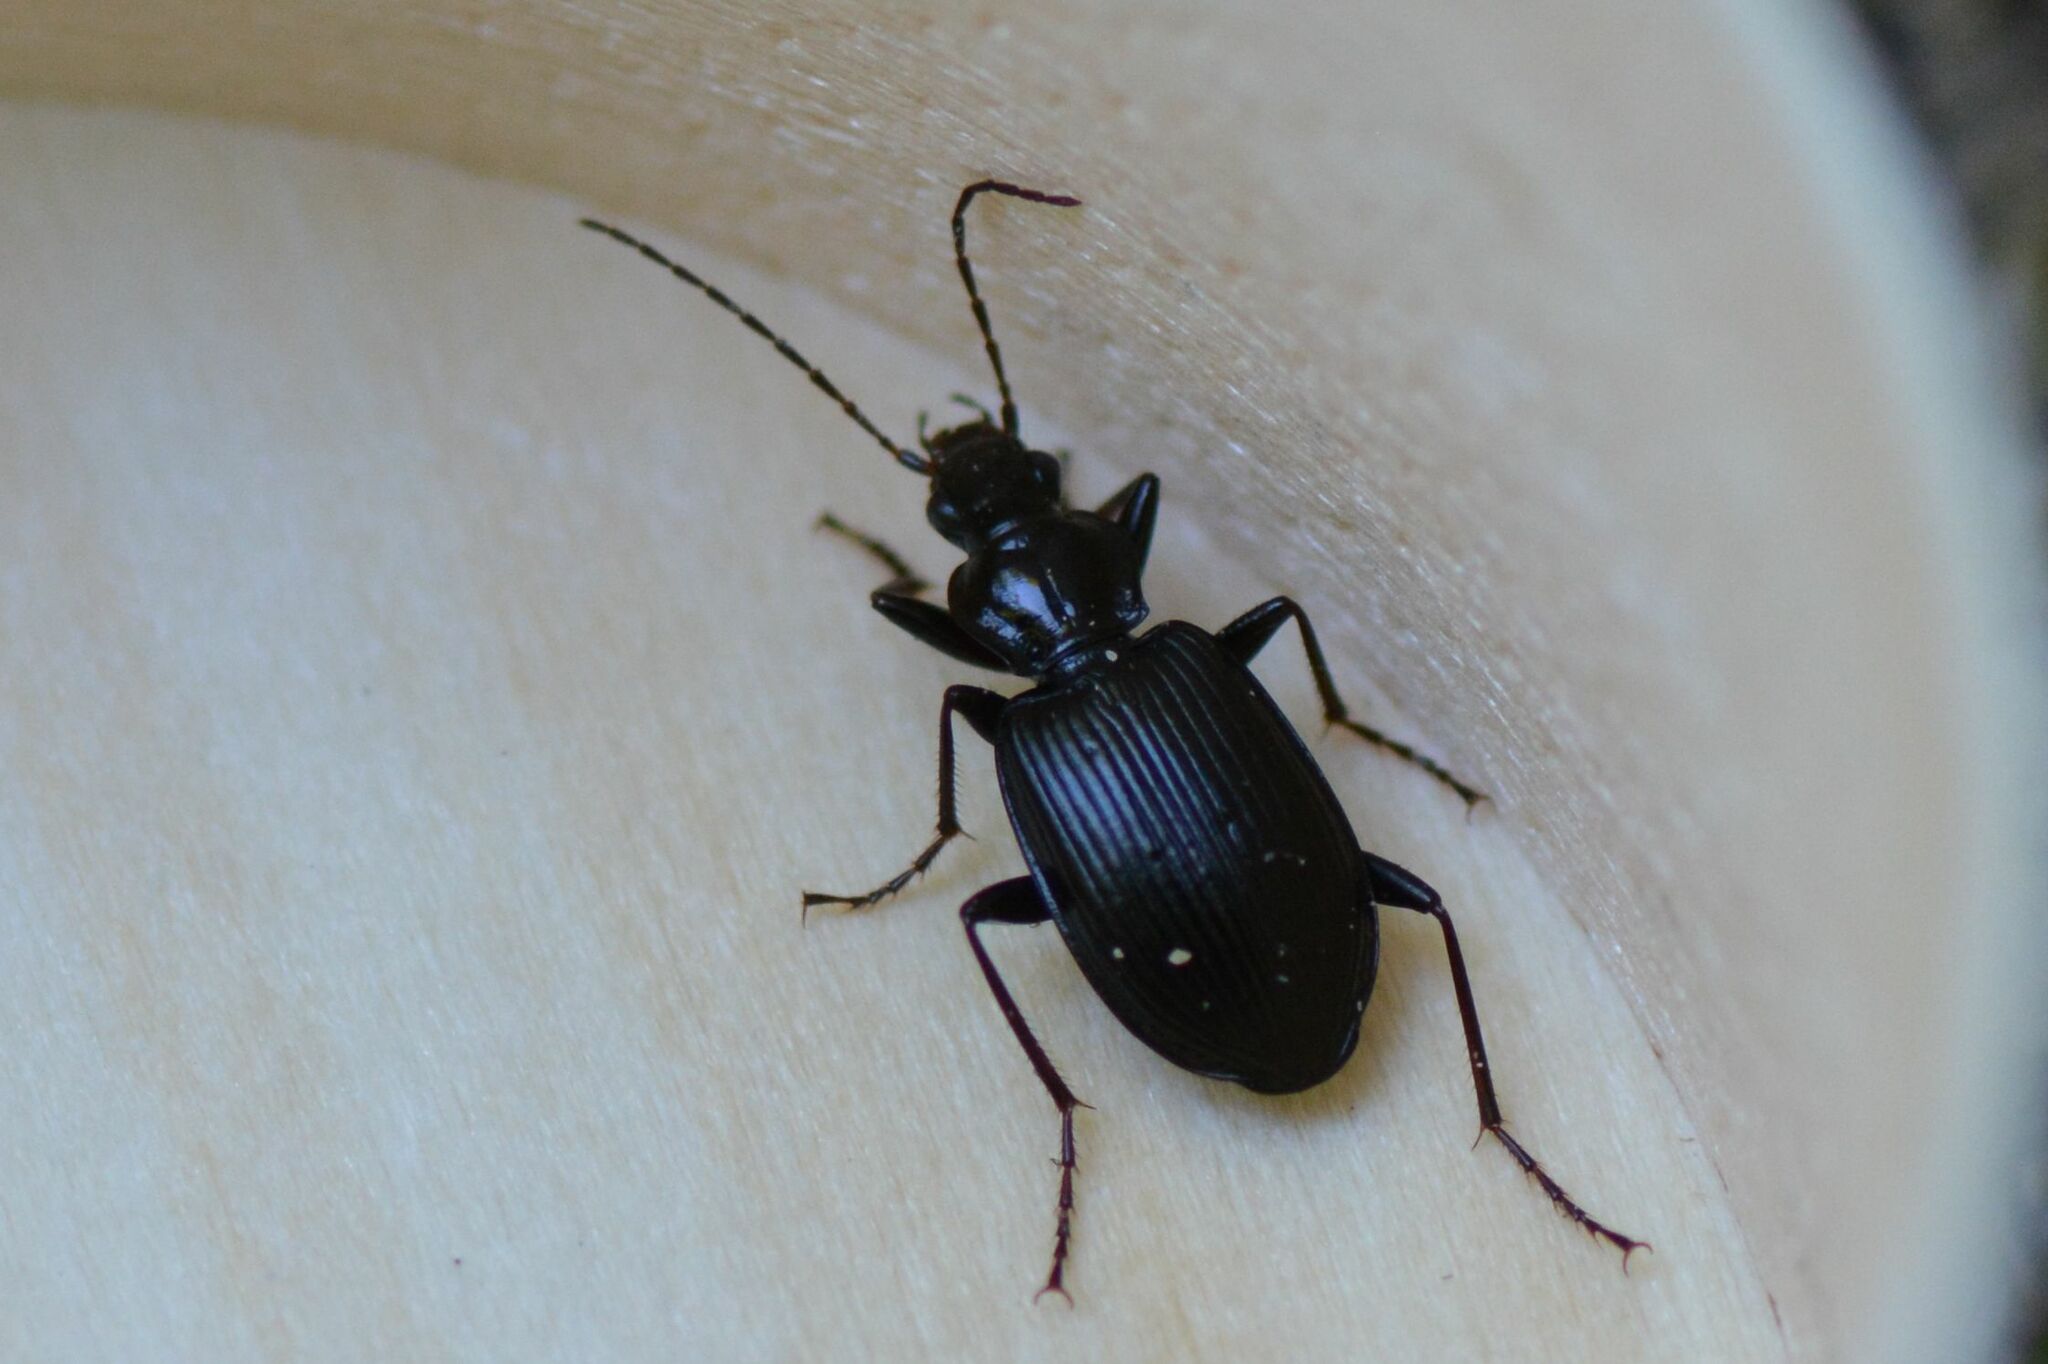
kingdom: Animalia
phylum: Arthropoda
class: Insecta
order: Coleoptera
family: Carabidae
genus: Platynus
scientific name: Platynus assimilis
